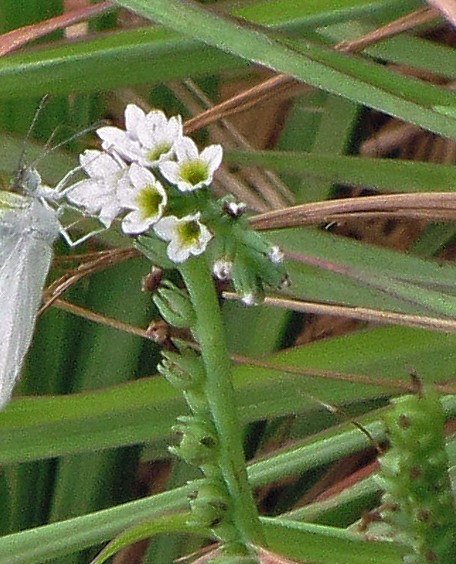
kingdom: Plantae
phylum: Tracheophyta
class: Magnoliopsida
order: Boraginales
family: Heliotropiaceae
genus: Heliotropium
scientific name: Heliotropium curassavicum
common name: Seaside heliotrope
